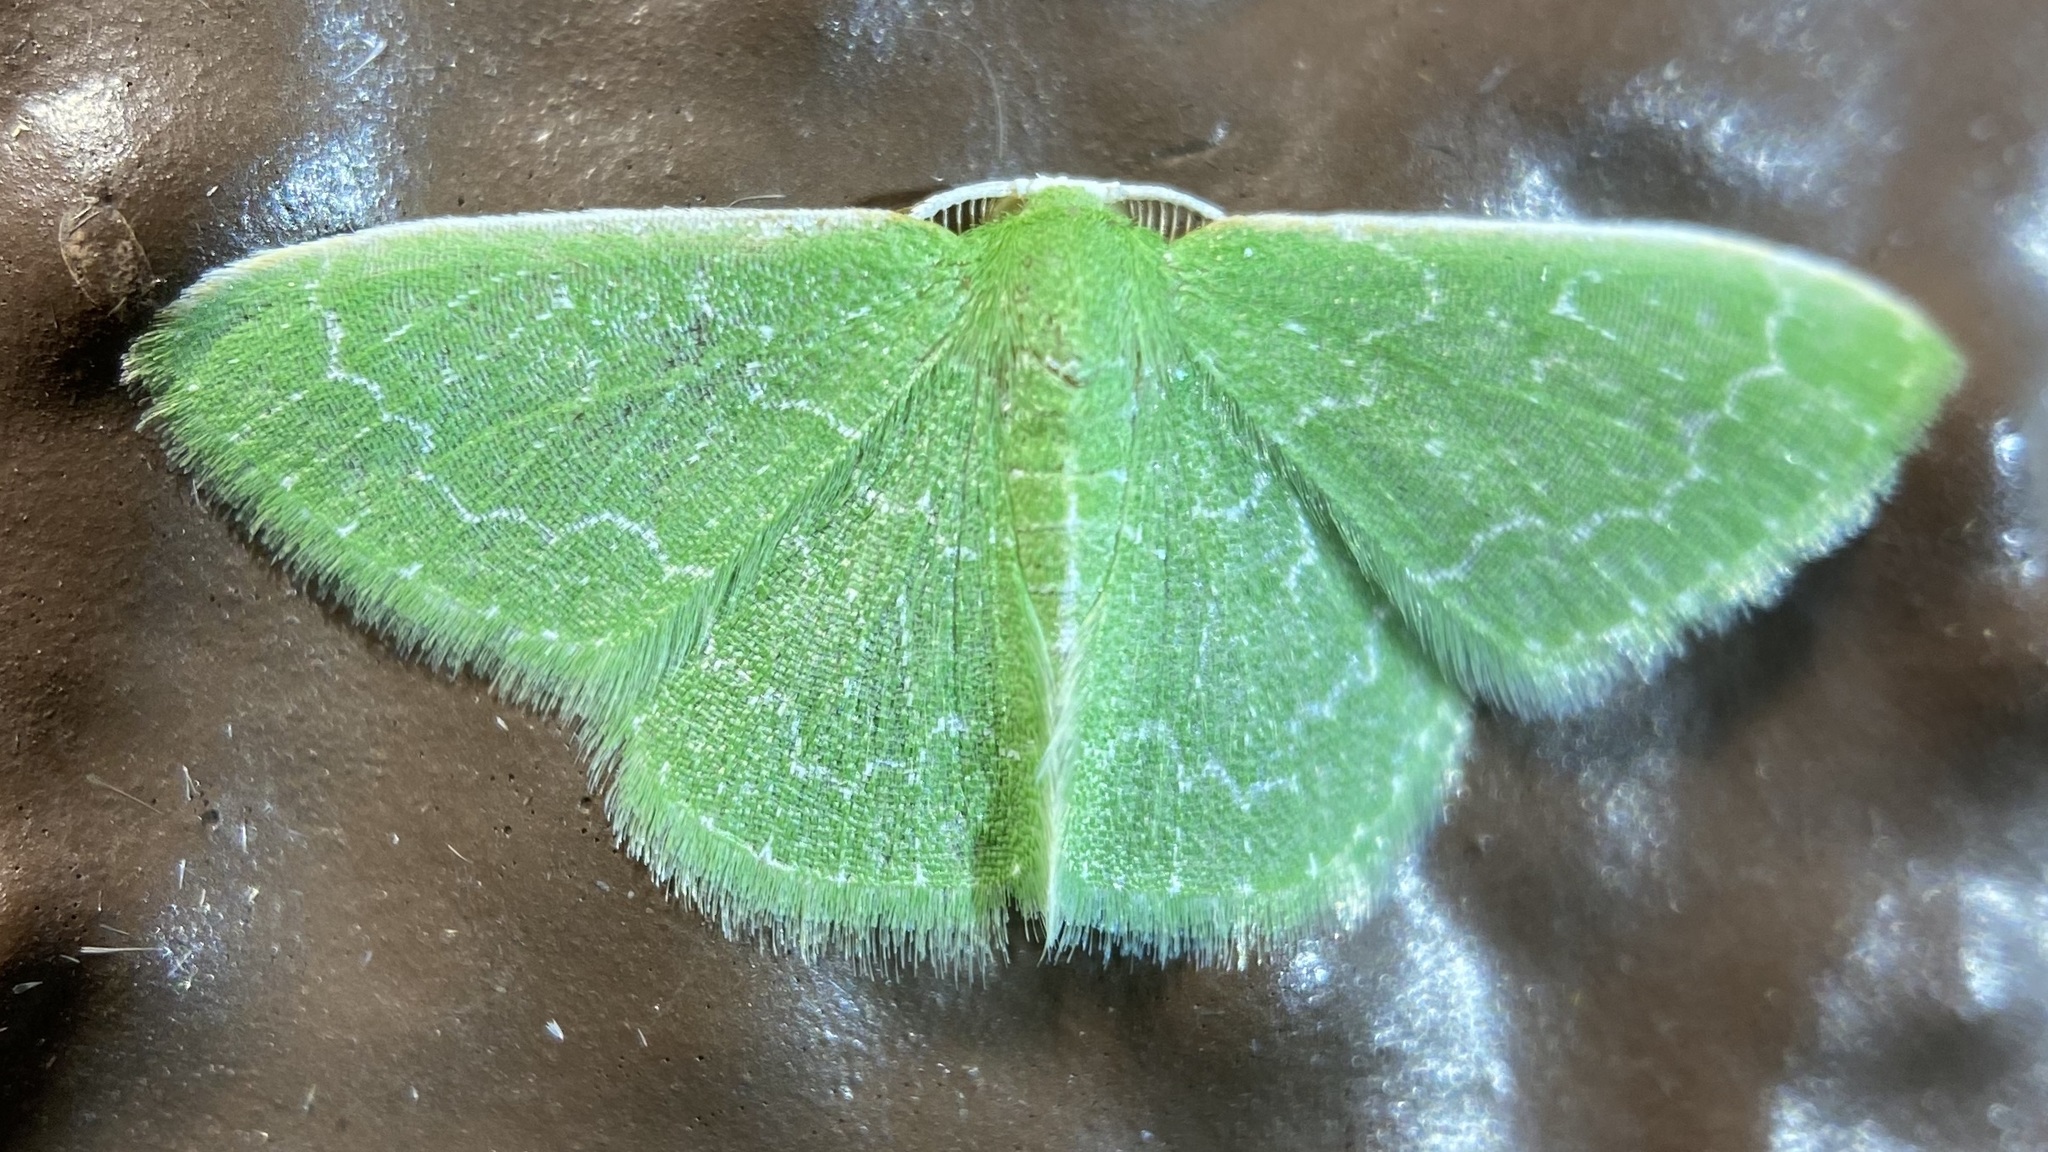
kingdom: Animalia
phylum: Arthropoda
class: Insecta
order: Lepidoptera
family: Geometridae
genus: Synchlora
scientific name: Synchlora frondaria
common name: Southern emerald
